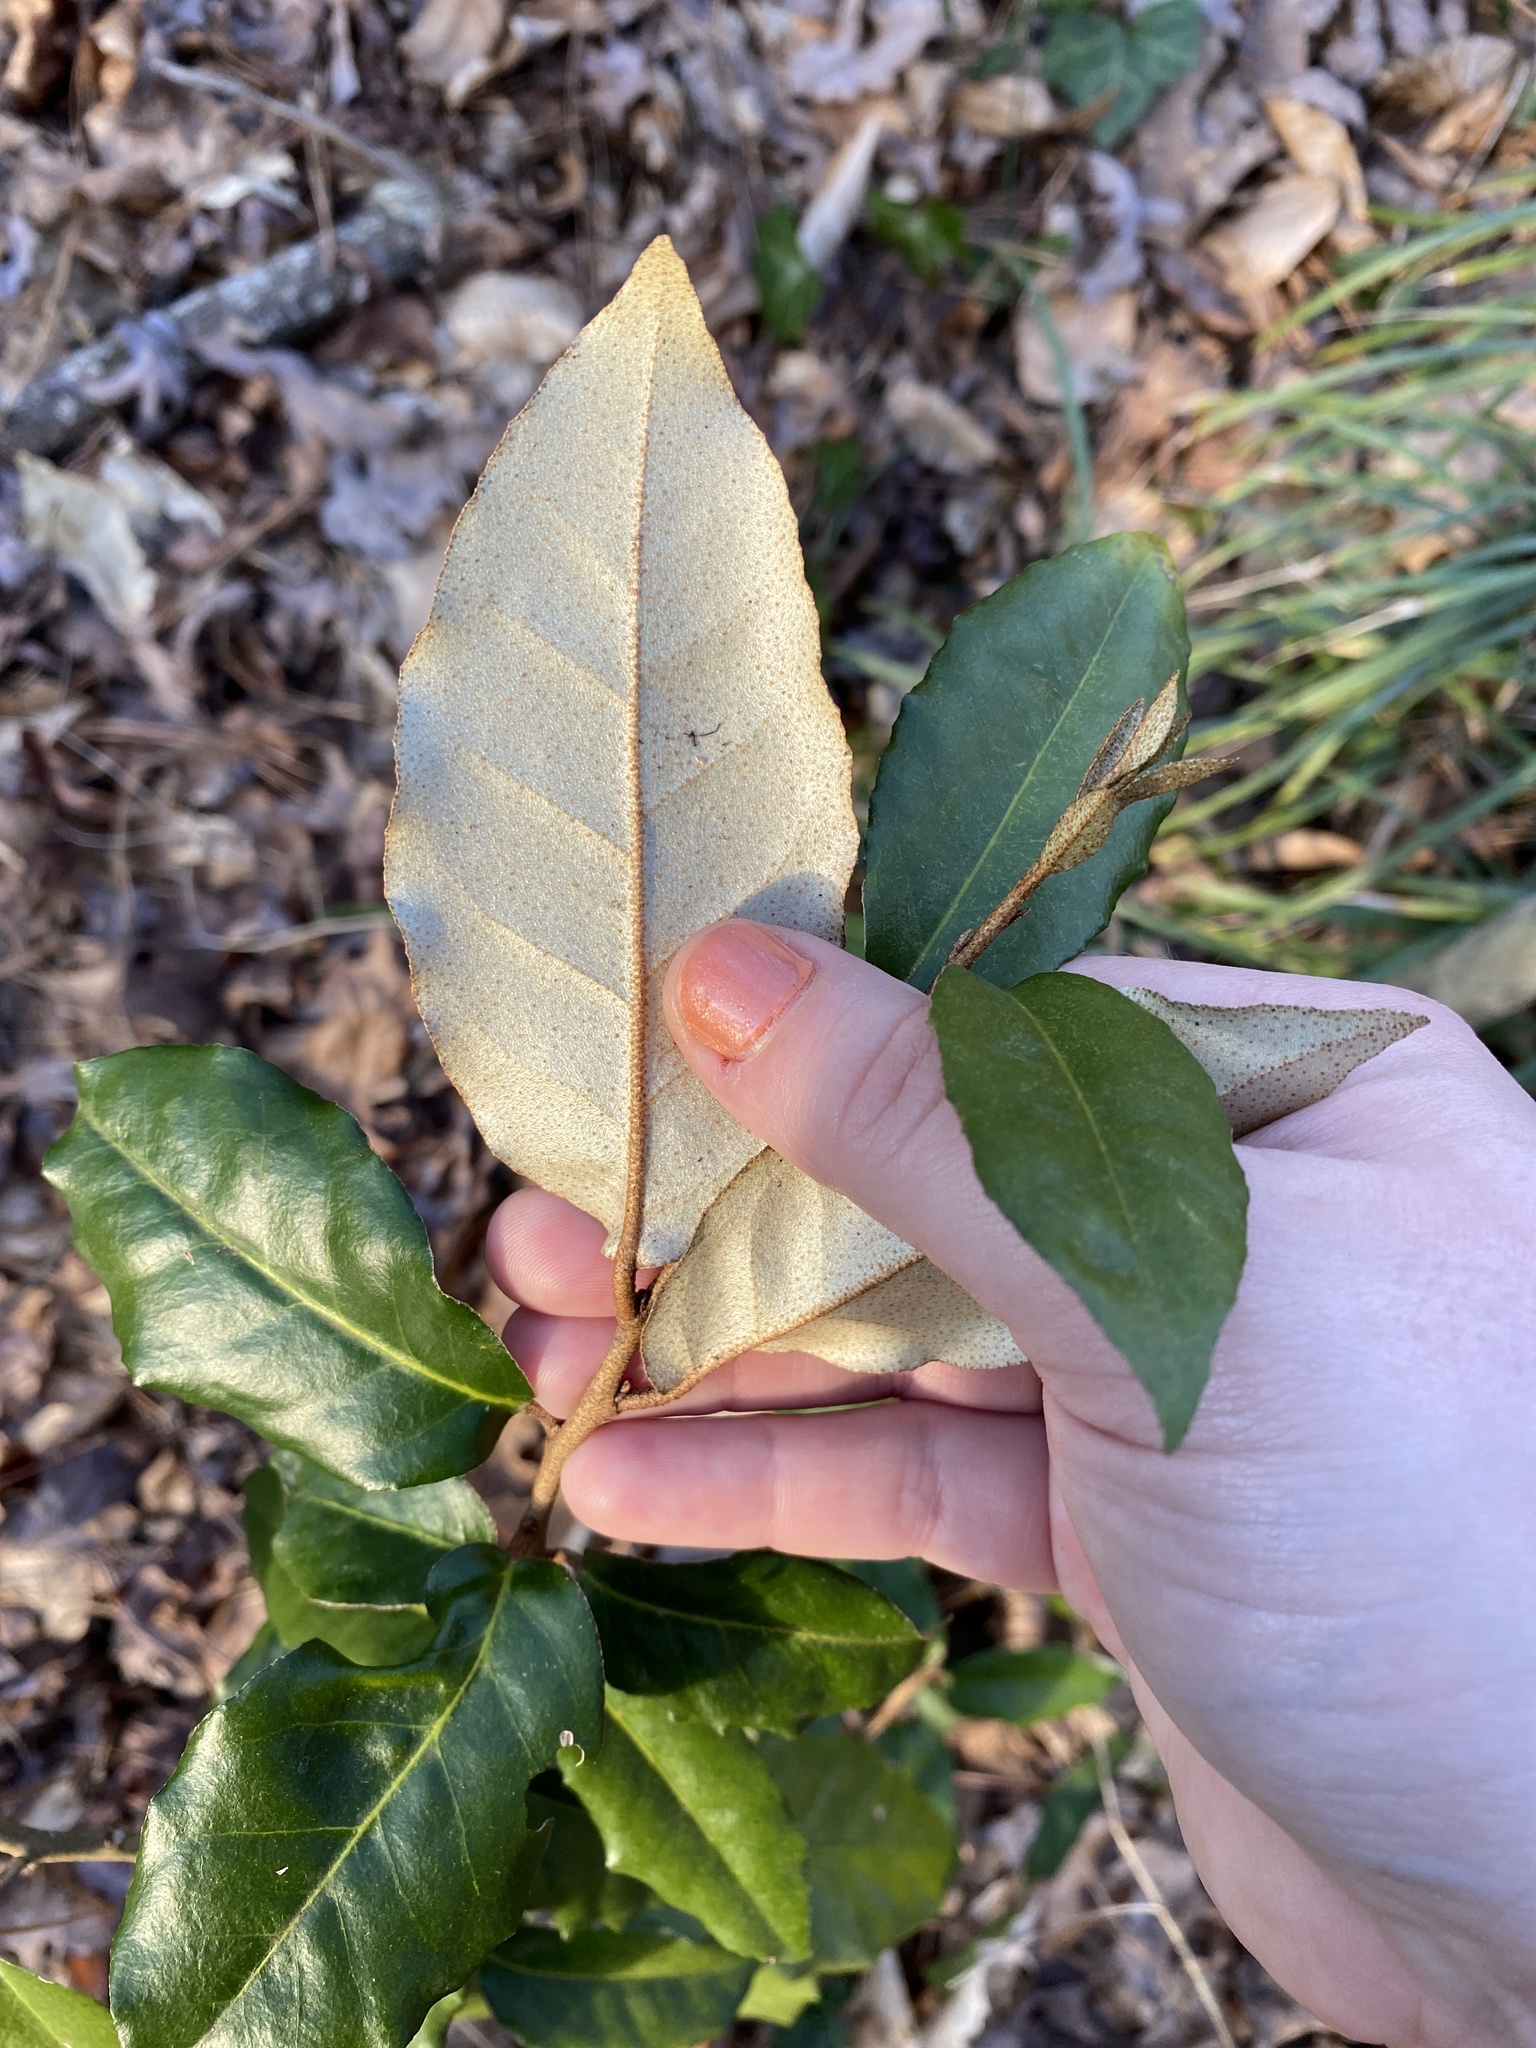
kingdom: Plantae
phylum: Tracheophyta
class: Magnoliopsida
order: Rosales
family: Elaeagnaceae
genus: Elaeagnus
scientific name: Elaeagnus pungens
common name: Spiny oleaster
